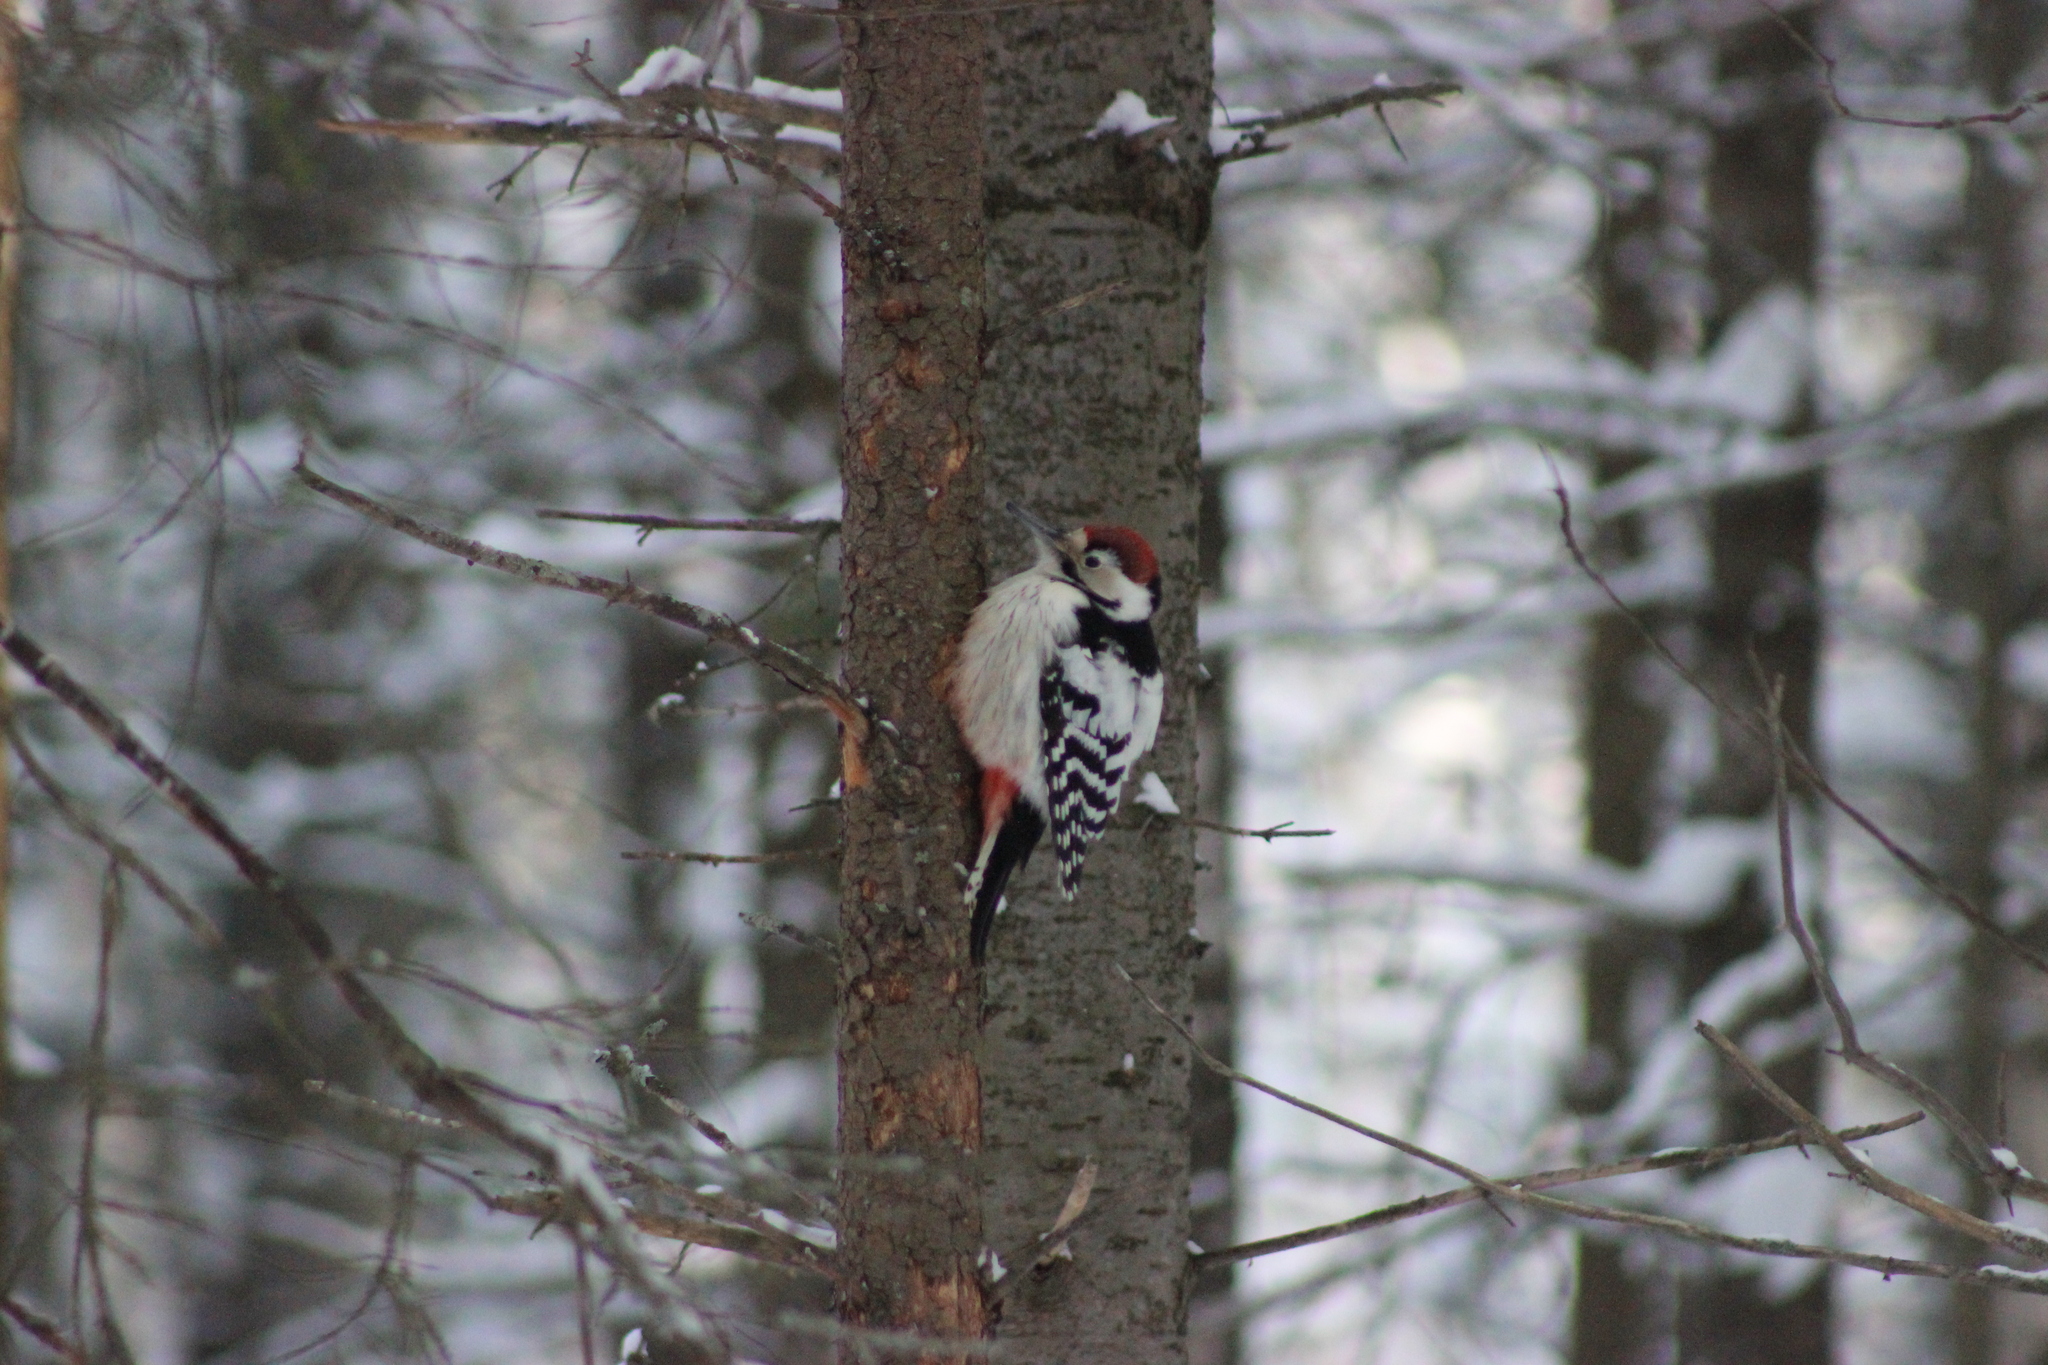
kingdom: Animalia
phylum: Chordata
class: Aves
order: Piciformes
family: Picidae
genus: Dendrocopos
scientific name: Dendrocopos leucotos
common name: White-backed woodpecker
